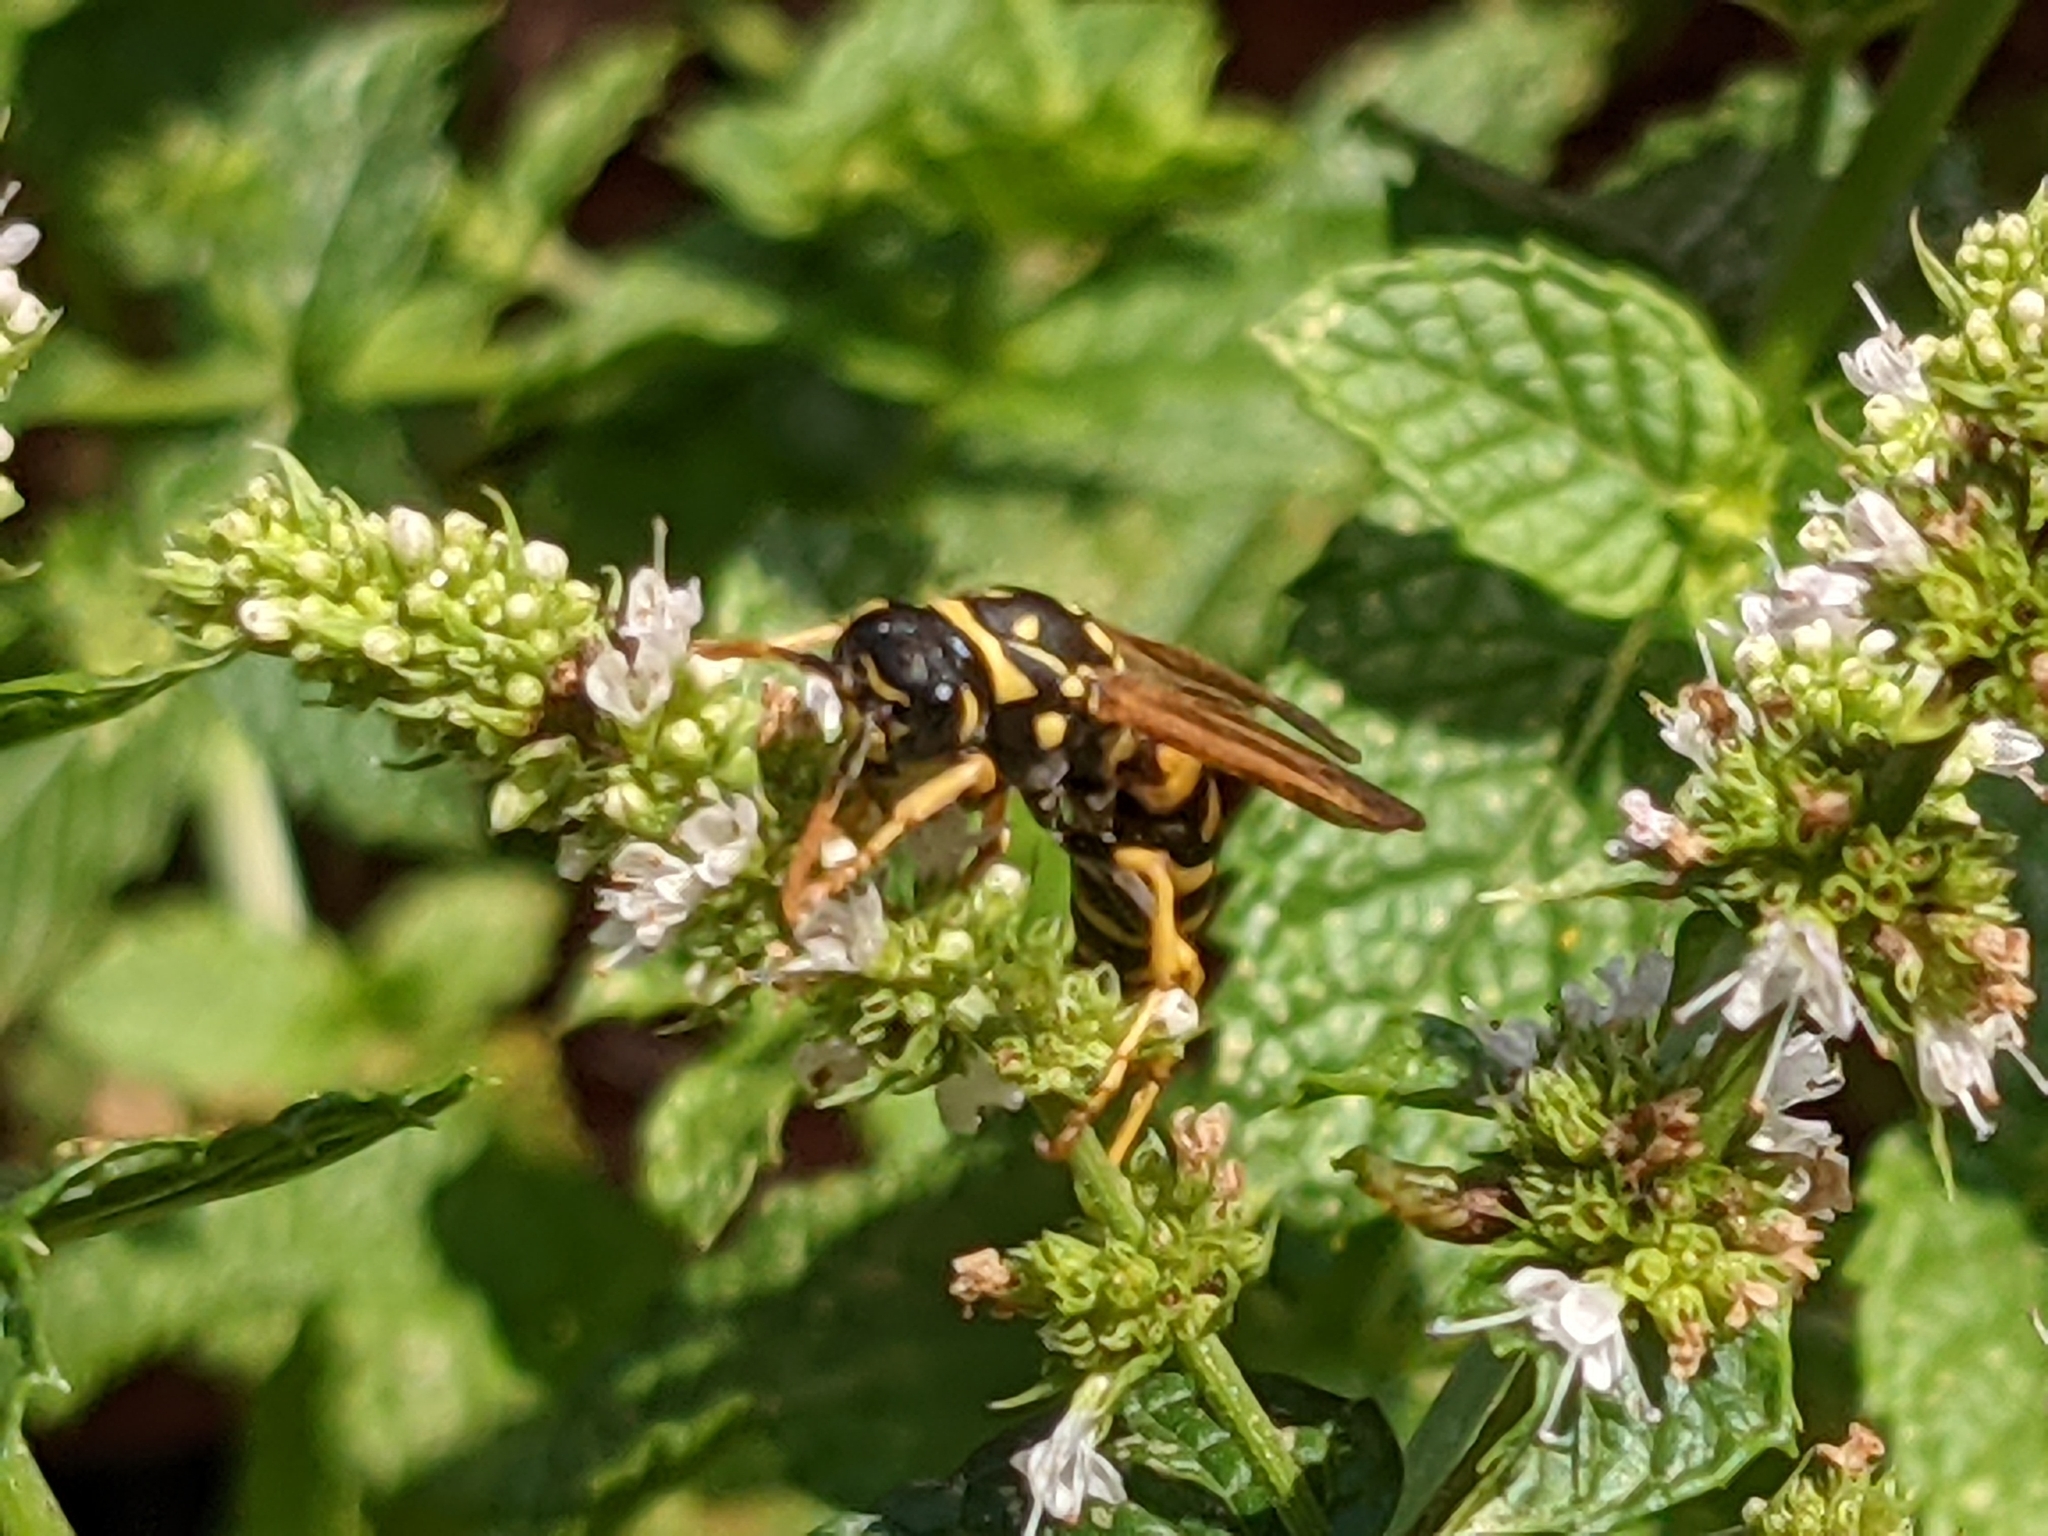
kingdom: Animalia
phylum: Arthropoda
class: Insecta
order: Hymenoptera
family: Eumenidae
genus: Polistes
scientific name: Polistes dominula
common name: Paper wasp
